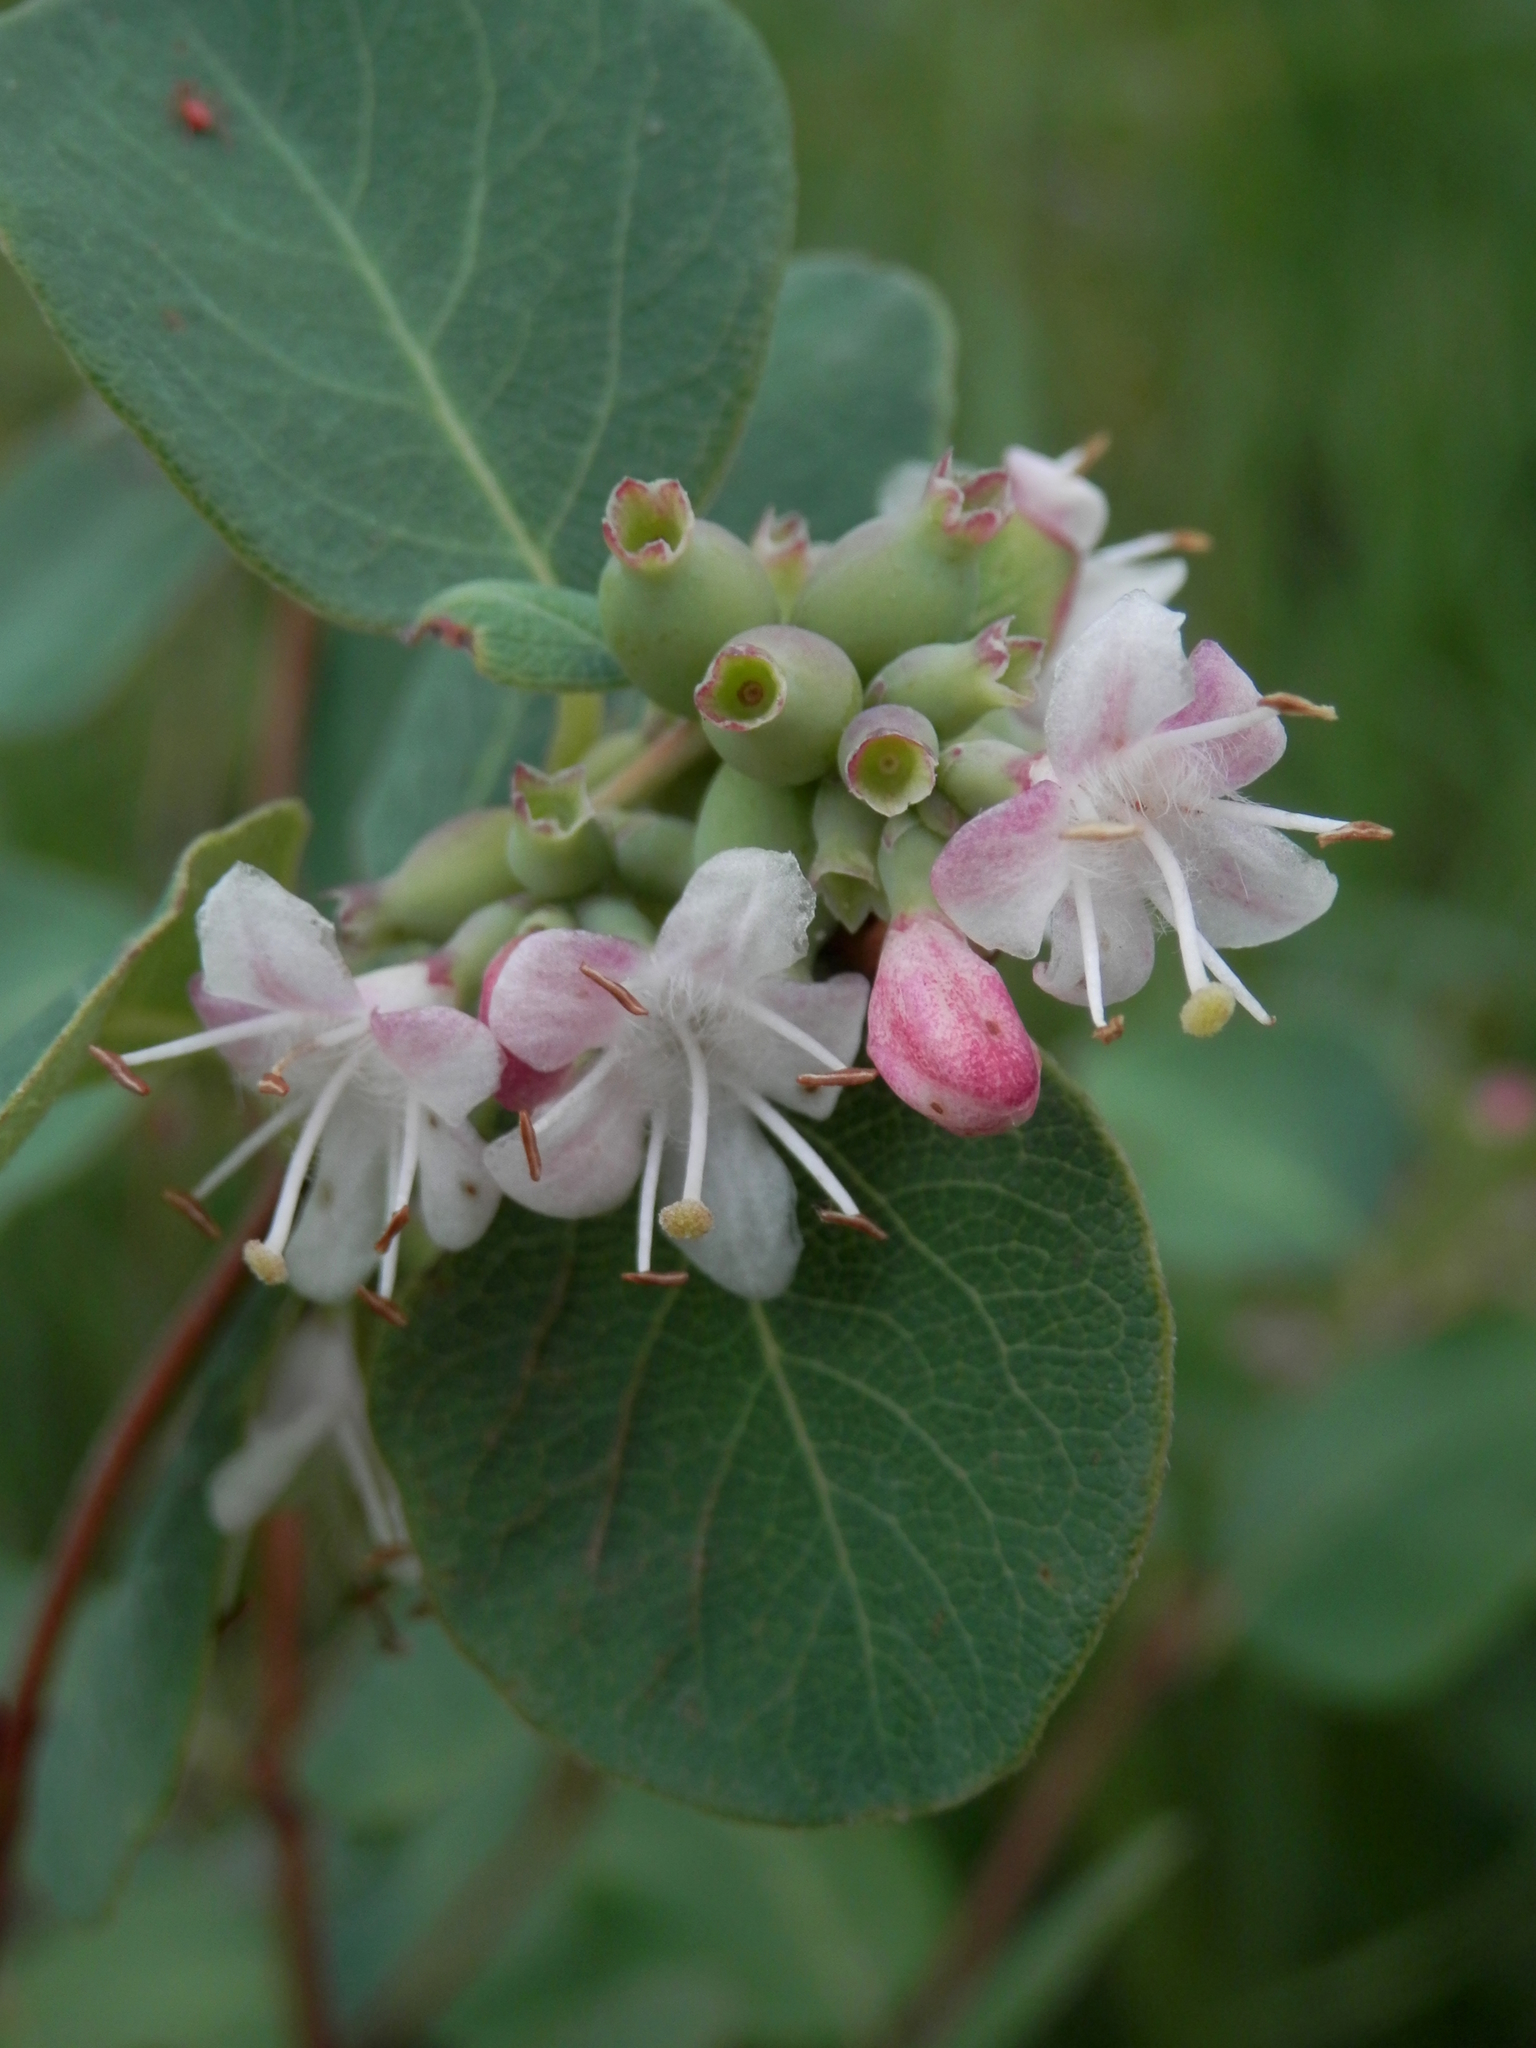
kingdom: Plantae
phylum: Tracheophyta
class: Magnoliopsida
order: Dipsacales
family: Caprifoliaceae
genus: Symphoricarpos
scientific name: Symphoricarpos occidentalis
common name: Wolfberry
